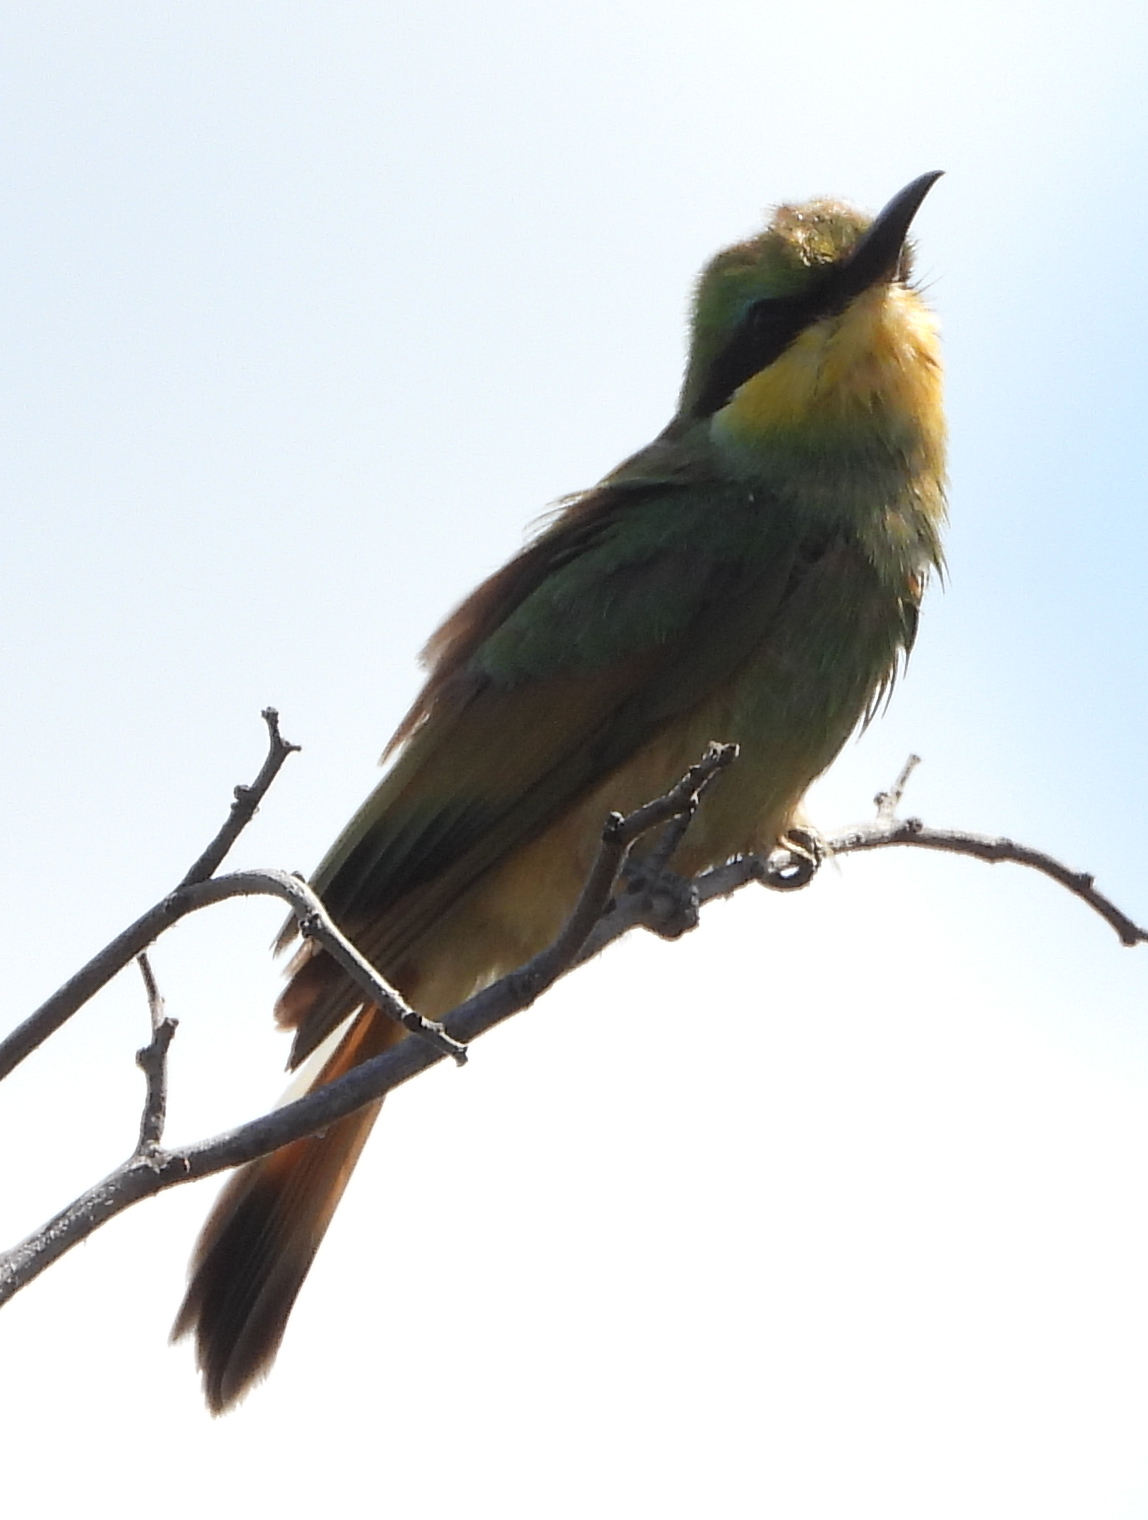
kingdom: Animalia
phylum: Chordata
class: Aves
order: Coraciiformes
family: Meropidae
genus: Merops
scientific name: Merops pusillus
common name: Little bee-eater
